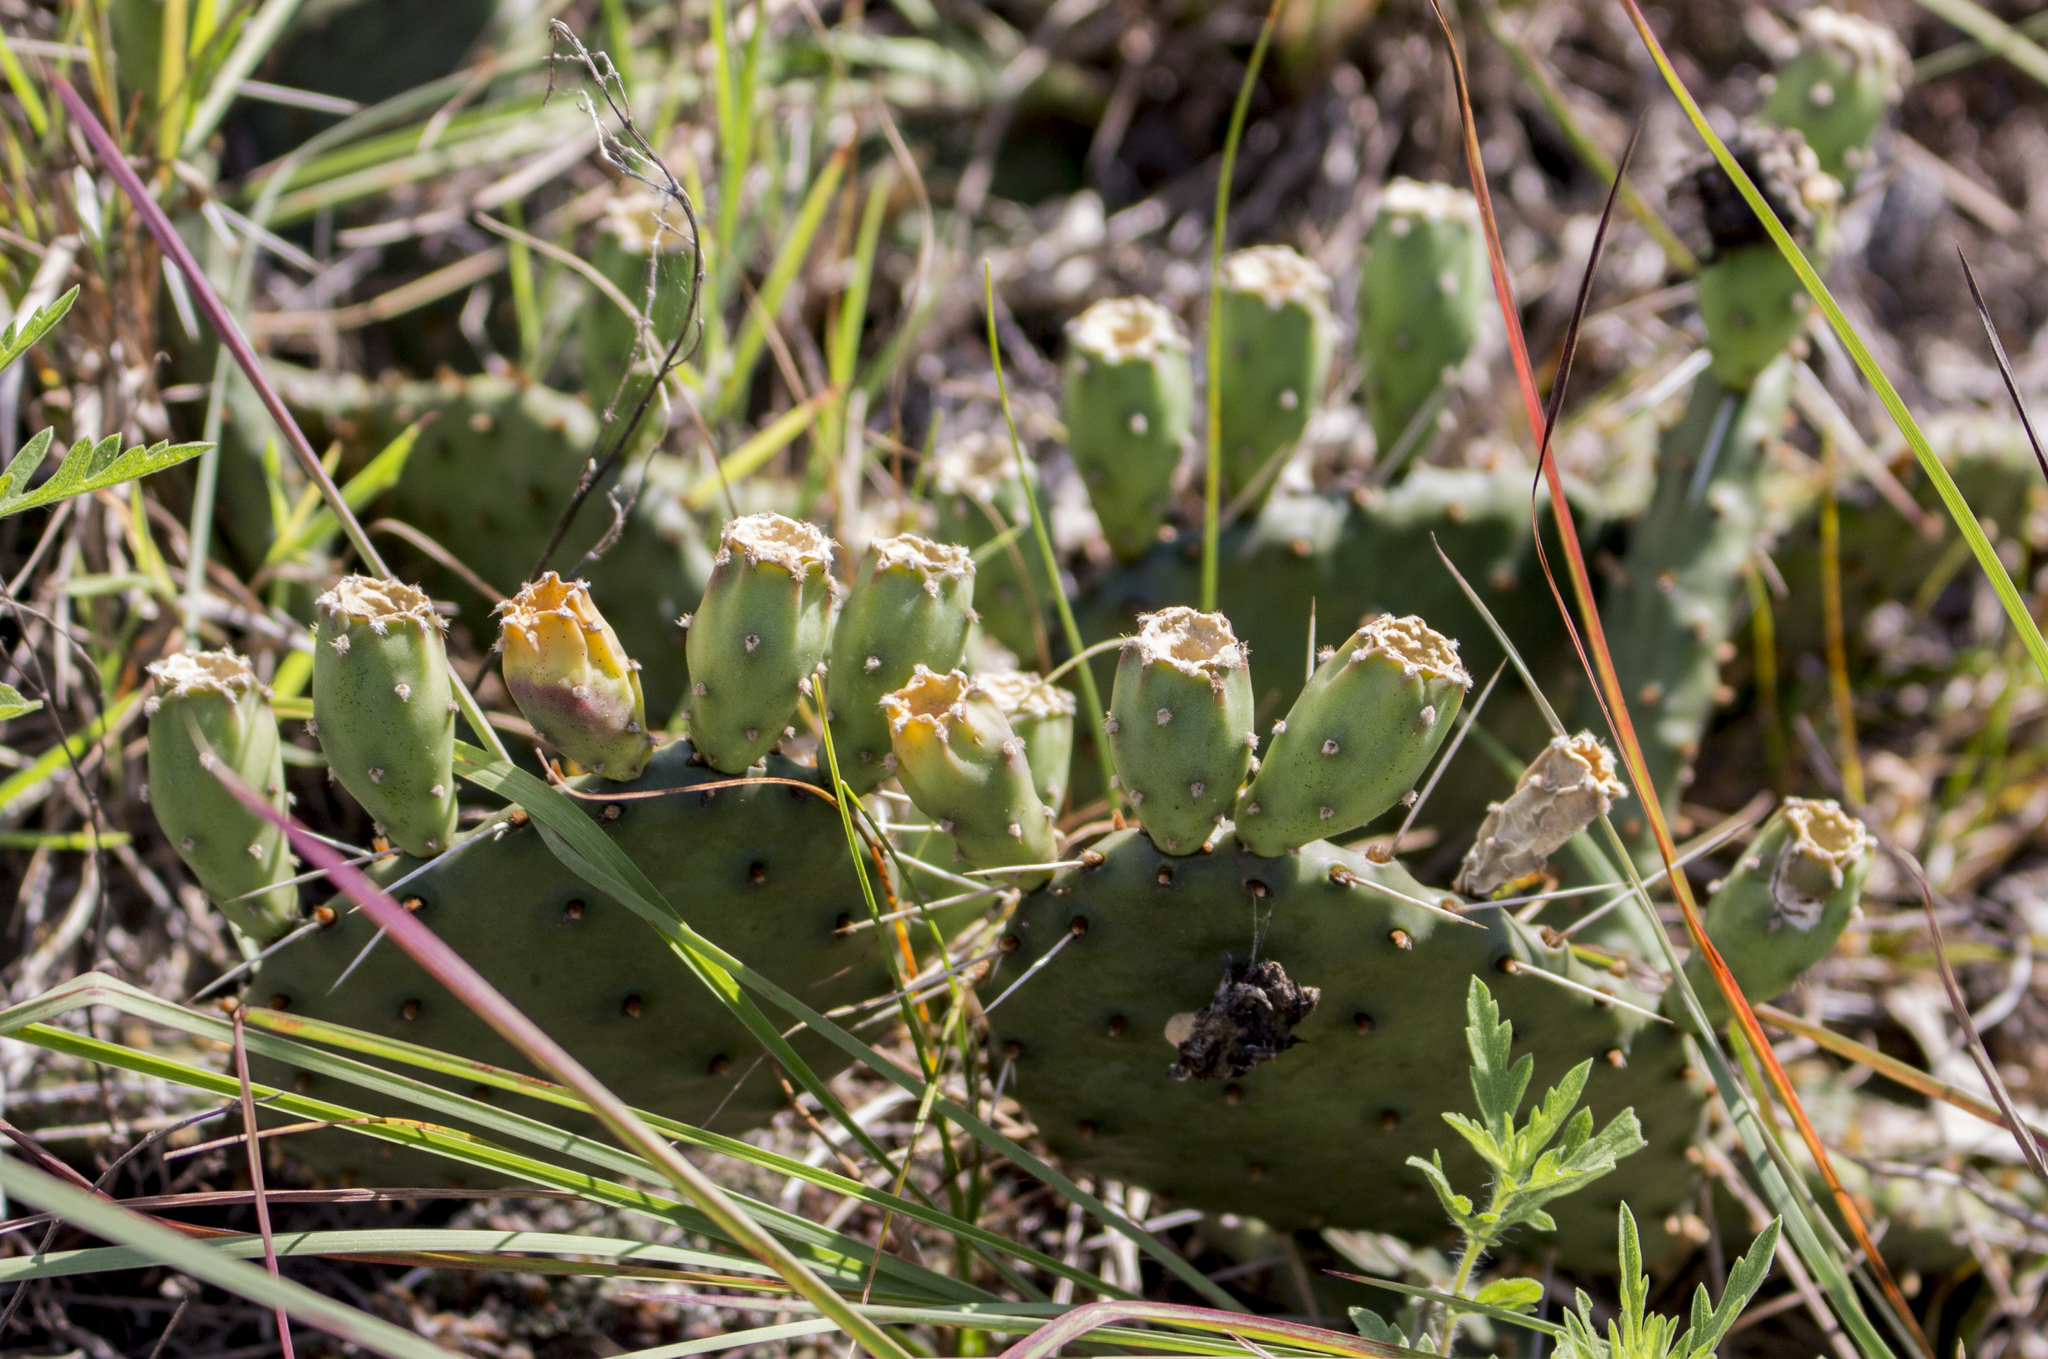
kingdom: Plantae
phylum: Tracheophyta
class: Magnoliopsida
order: Caryophyllales
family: Cactaceae
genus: Opuntia
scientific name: Opuntia humifusa
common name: Eastern prickly-pear
